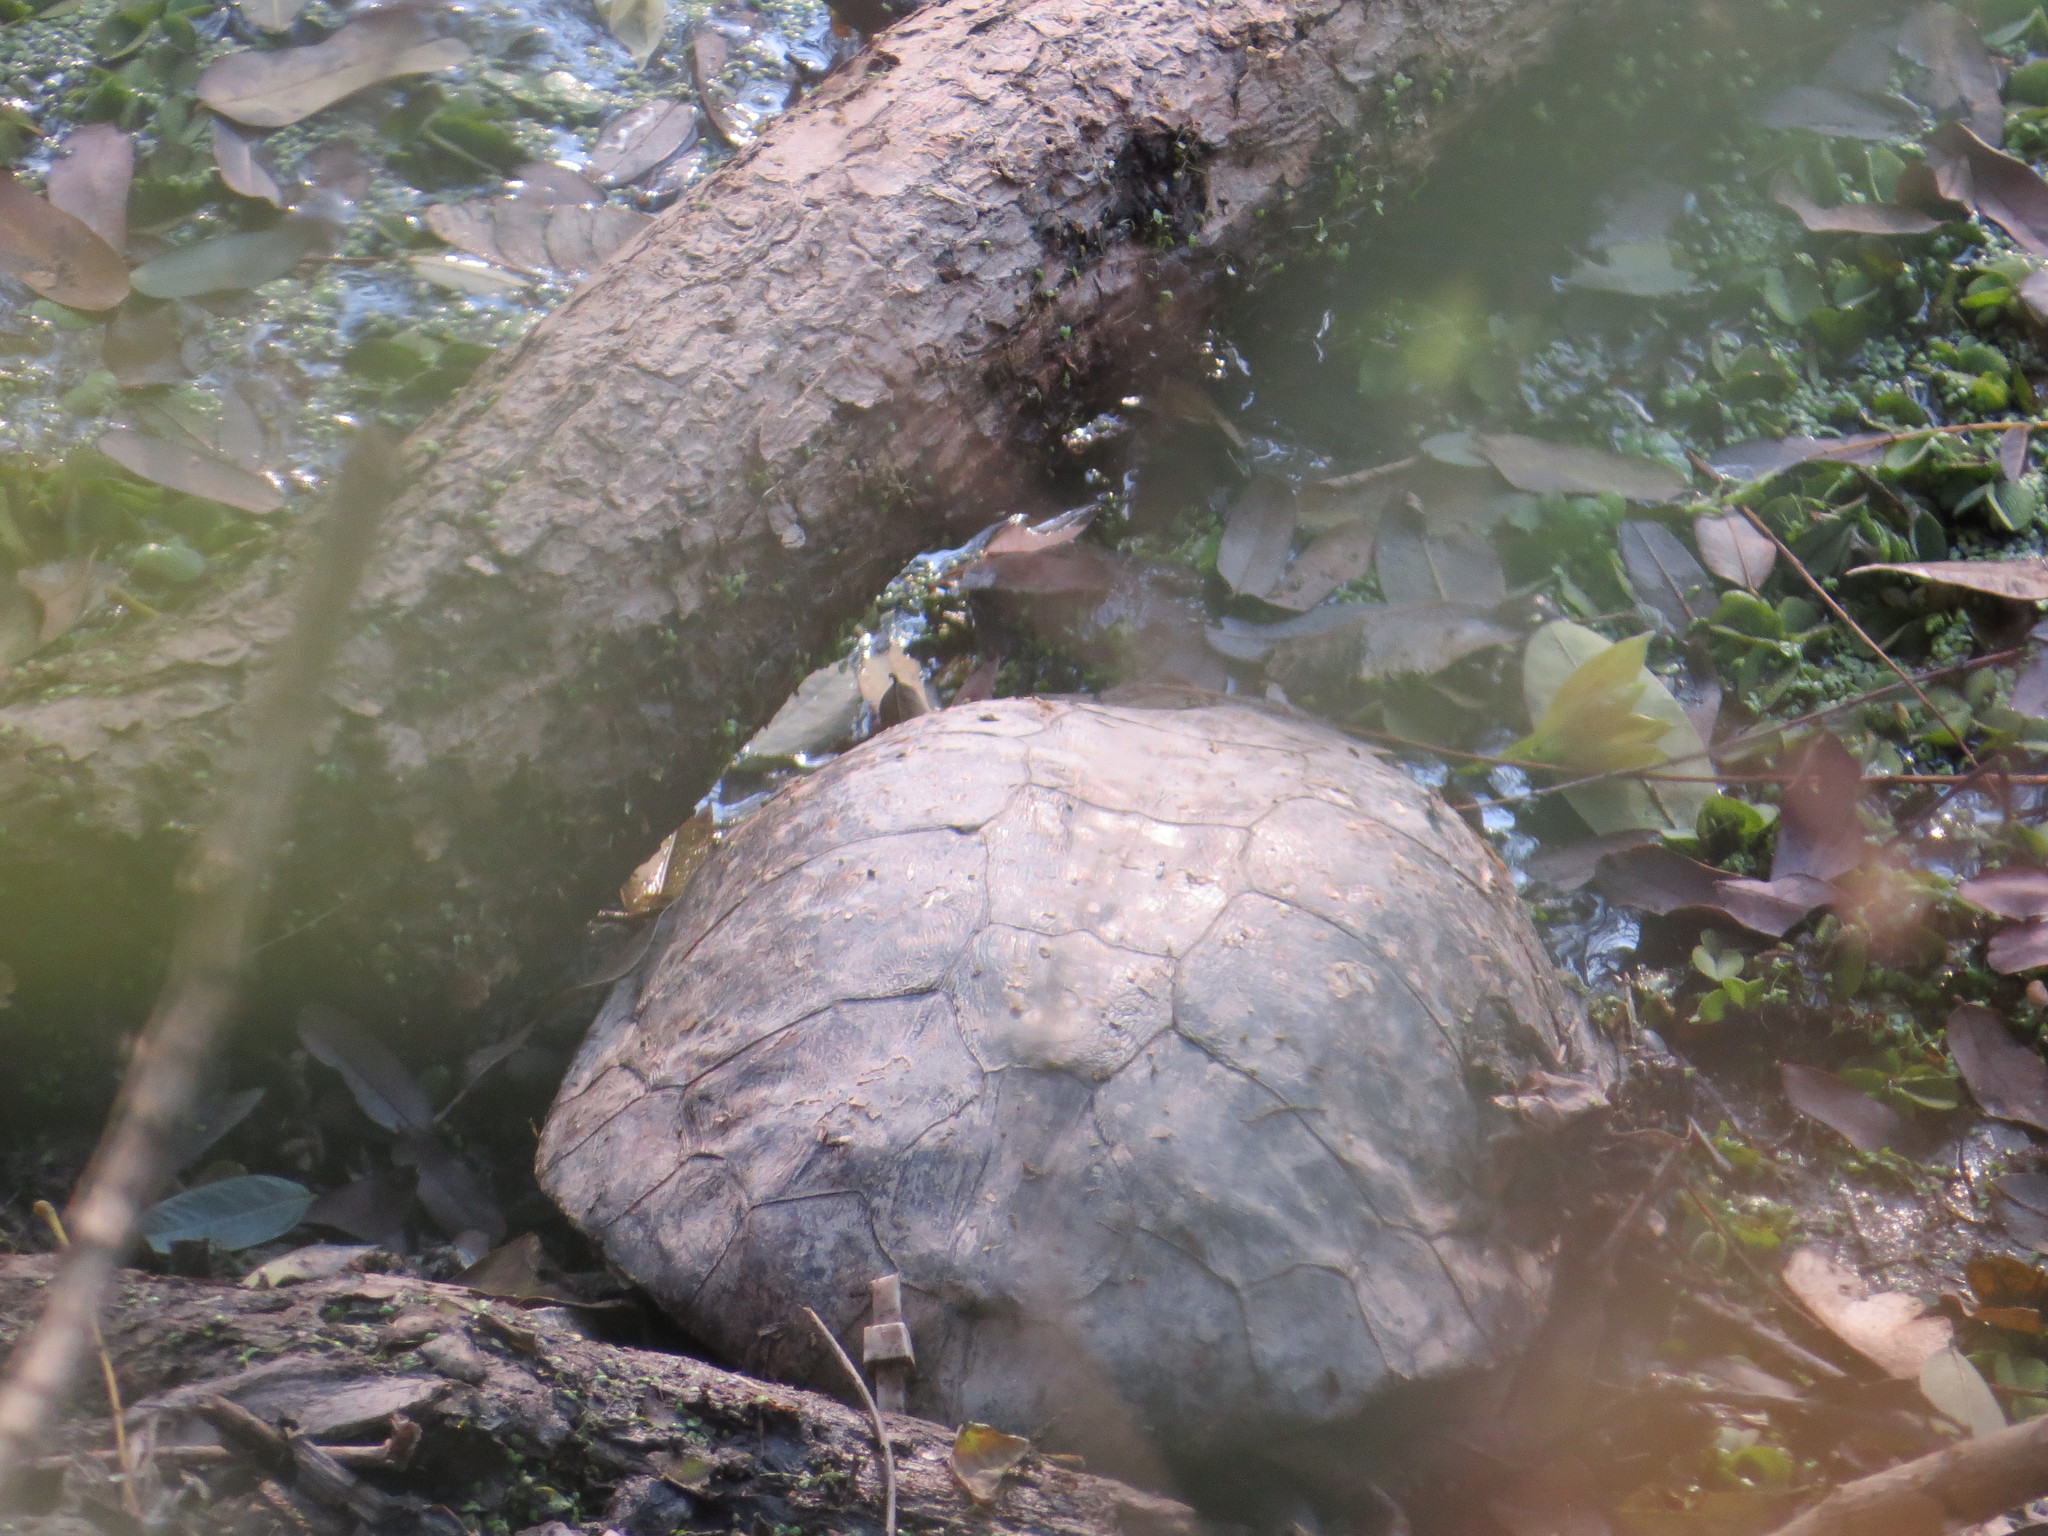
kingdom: Animalia
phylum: Chordata
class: Testudines
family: Chelidae
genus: Hydromedusa
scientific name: Hydromedusa tectifera
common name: Argentine snake-necked turtle
